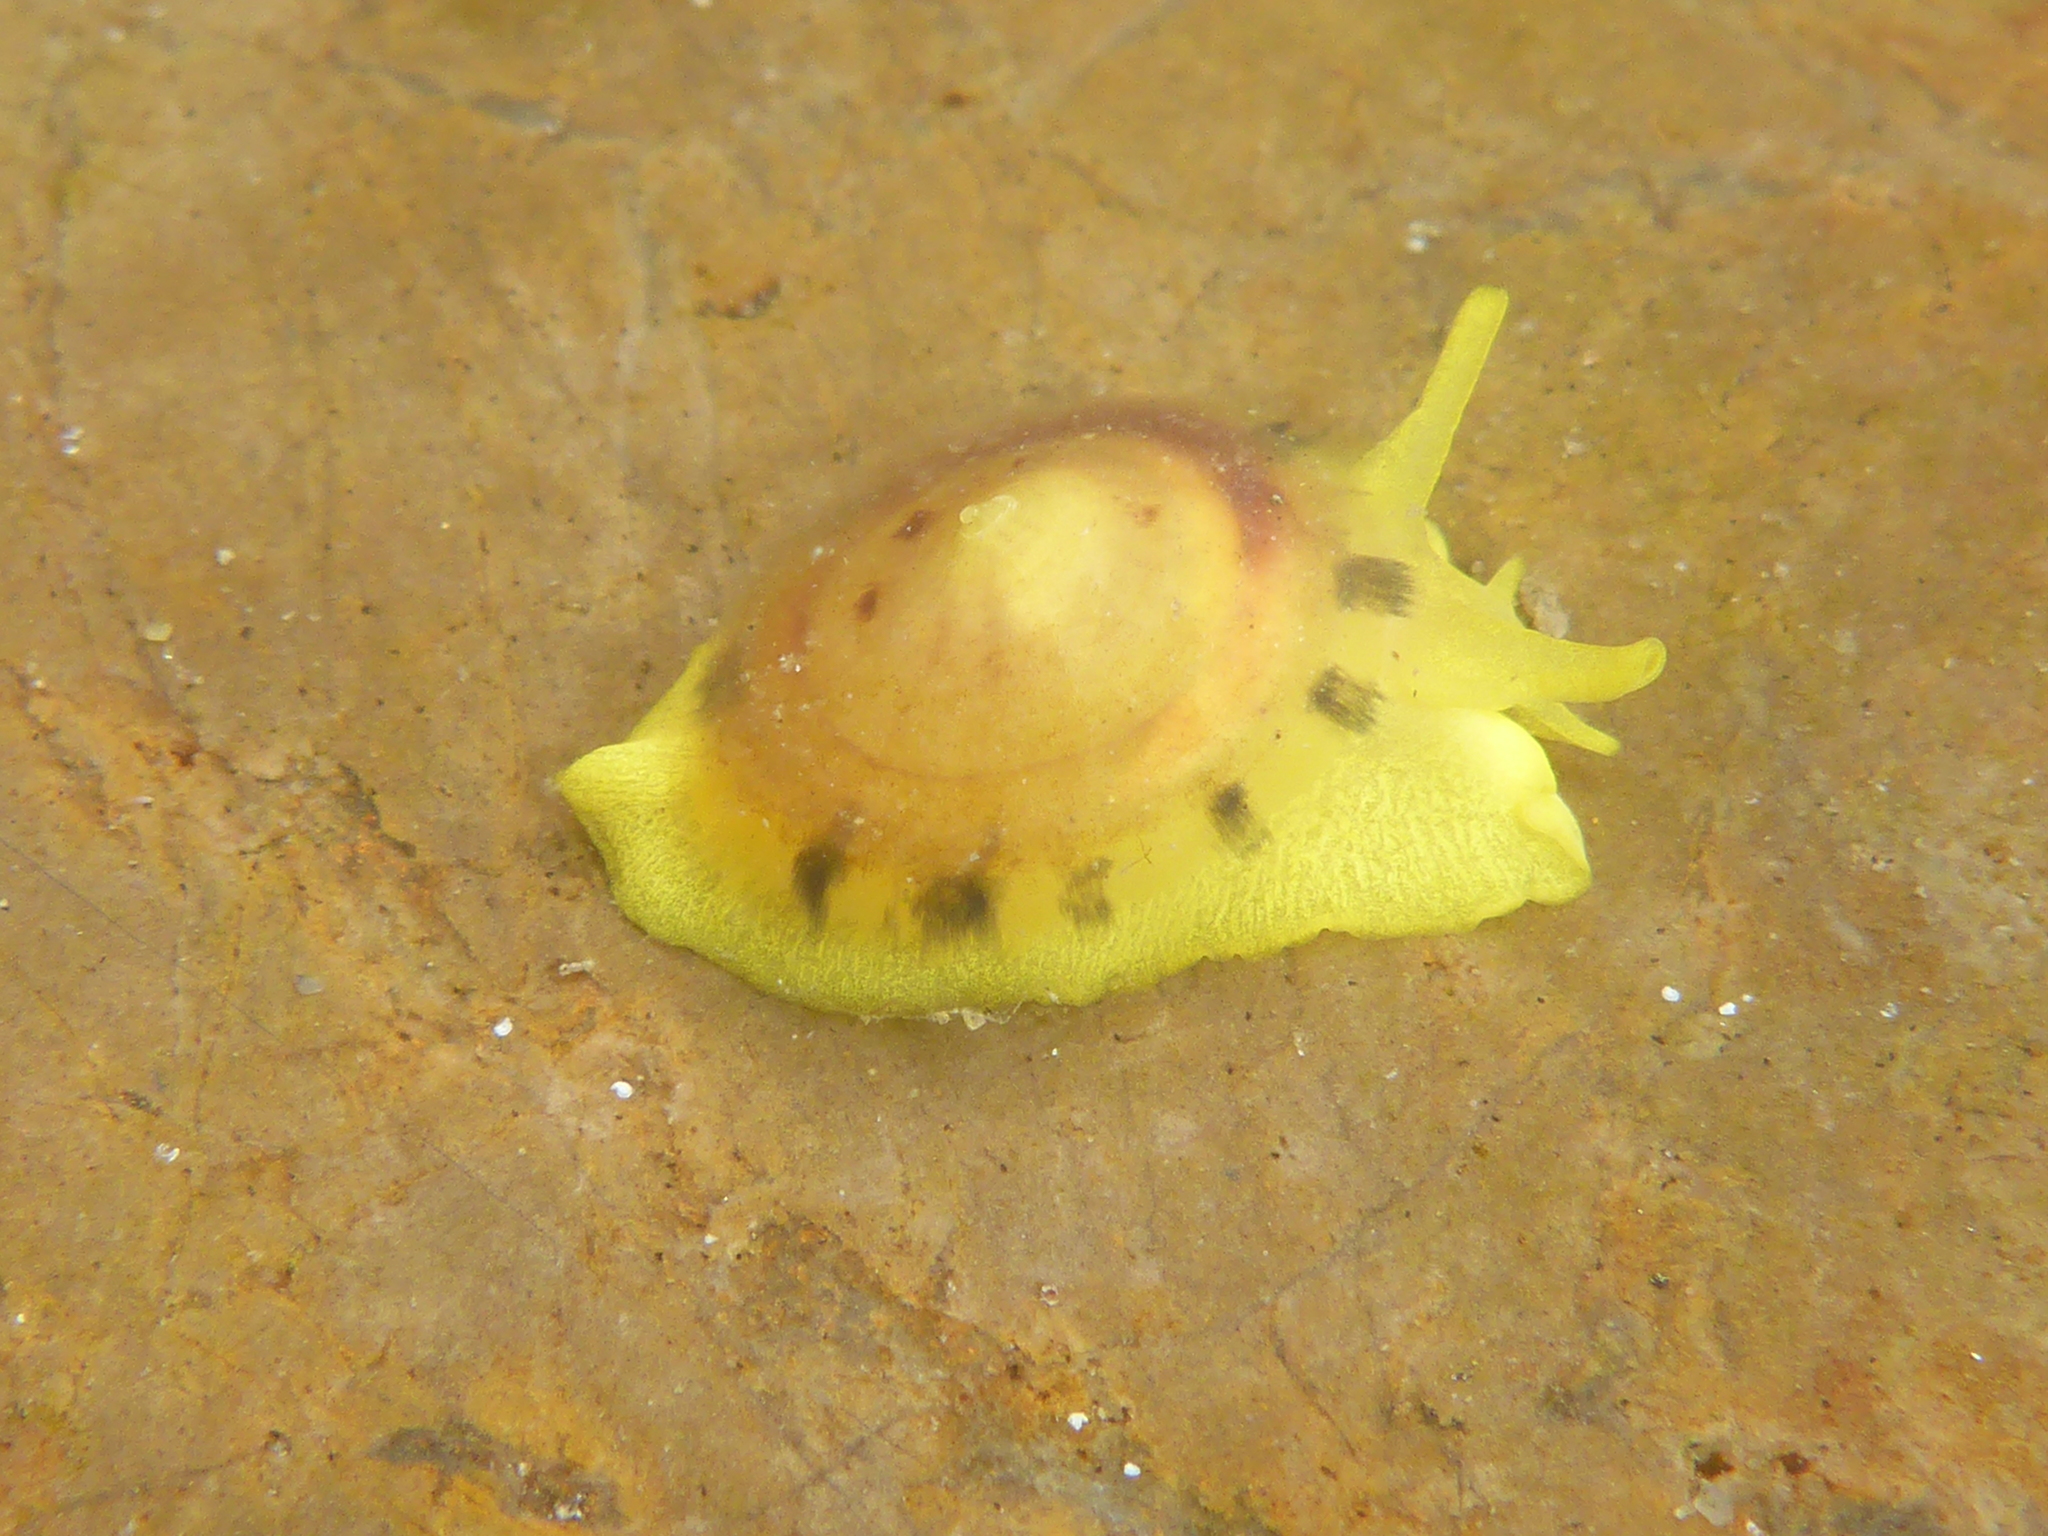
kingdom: Animalia
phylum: Mollusca
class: Gastropoda
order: Umbraculida
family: Tylodinidae
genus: Tylodina
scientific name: Tylodina fungina
